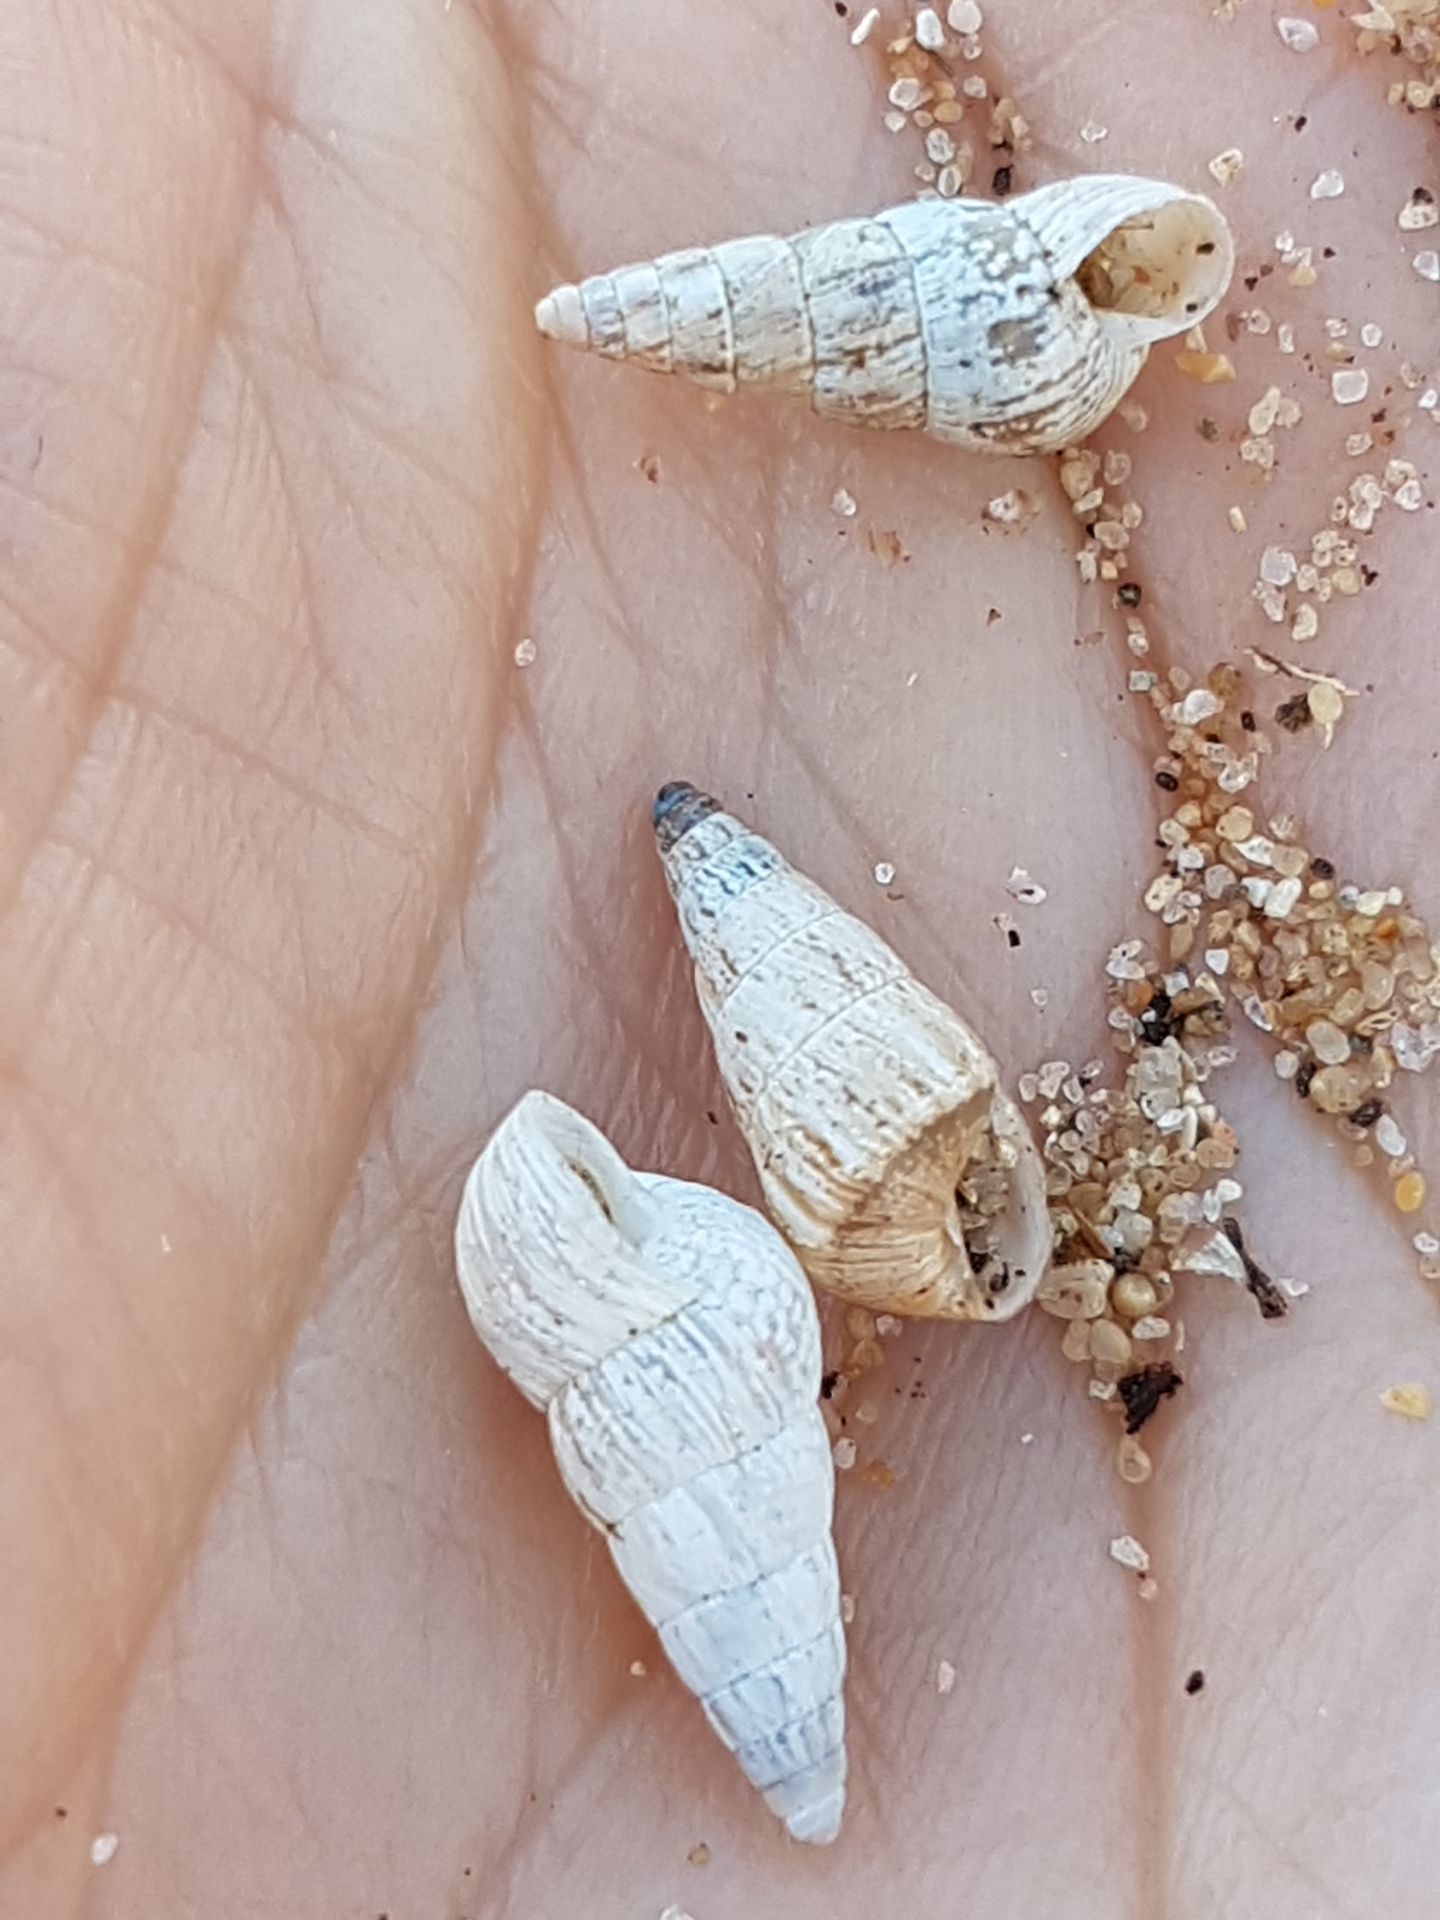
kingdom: Animalia
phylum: Mollusca
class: Gastropoda
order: Stylommatophora
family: Geomitridae
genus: Cochlicella
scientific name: Cochlicella acuta
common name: Pointed snail
